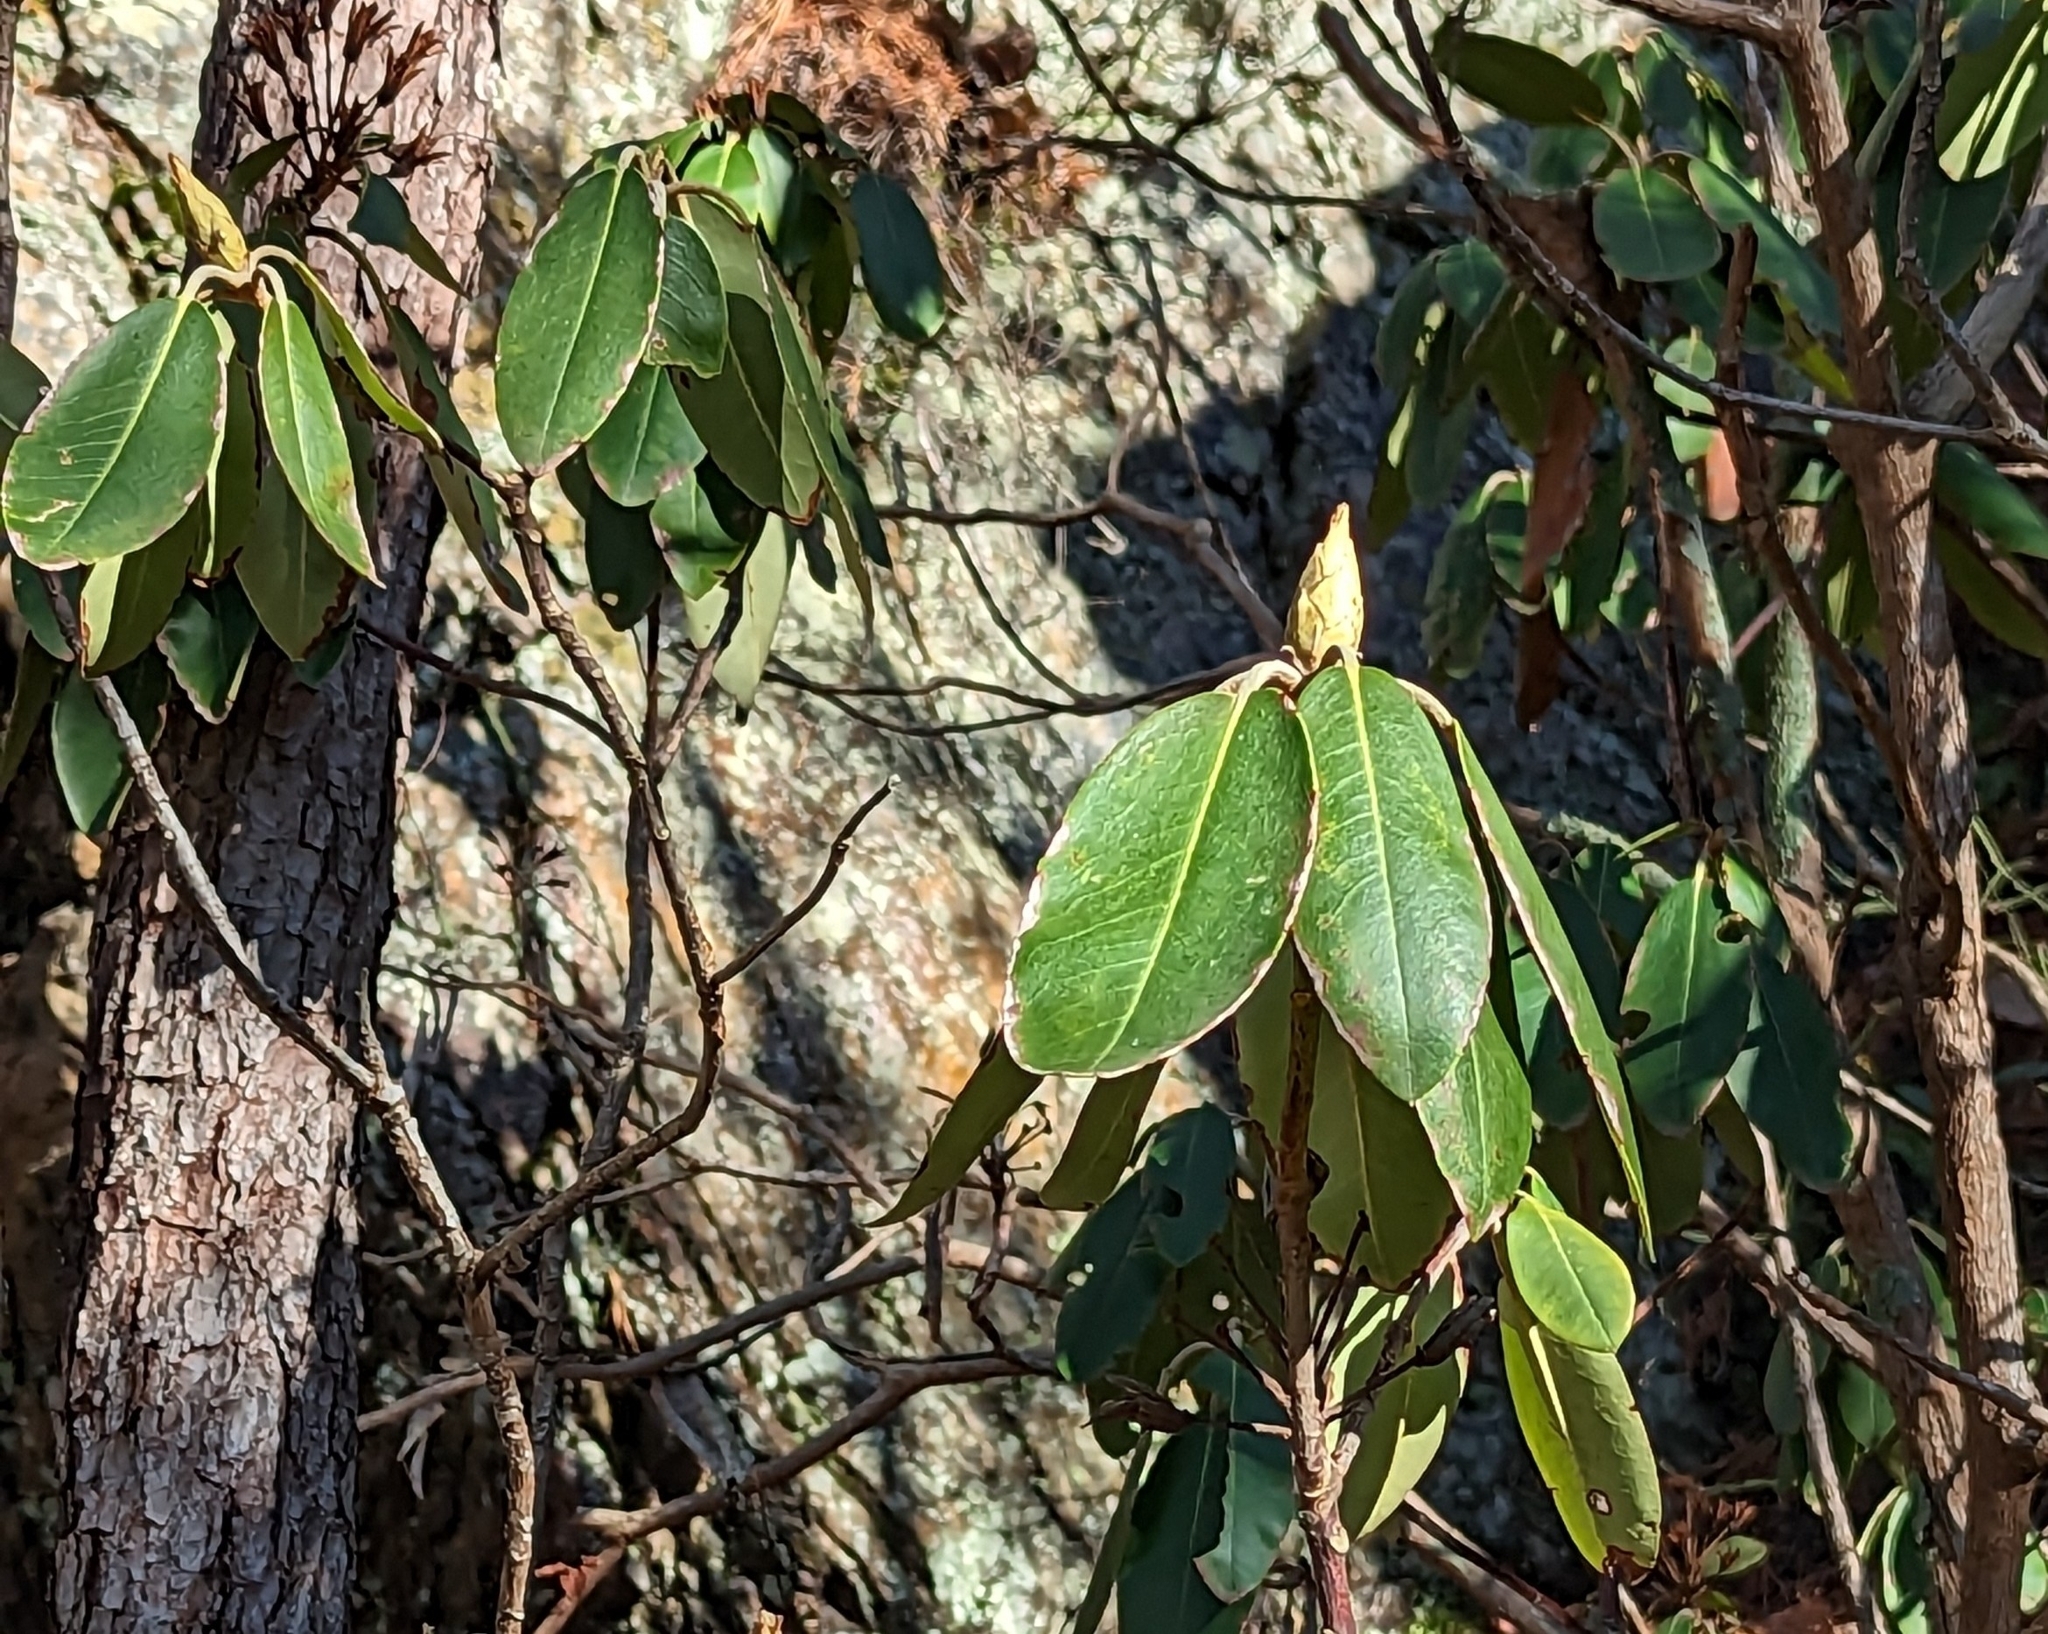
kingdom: Plantae
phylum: Tracheophyta
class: Magnoliopsida
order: Ericales
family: Ericaceae
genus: Rhododendron
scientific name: Rhododendron catawbiense
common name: Catawba rhododendron
